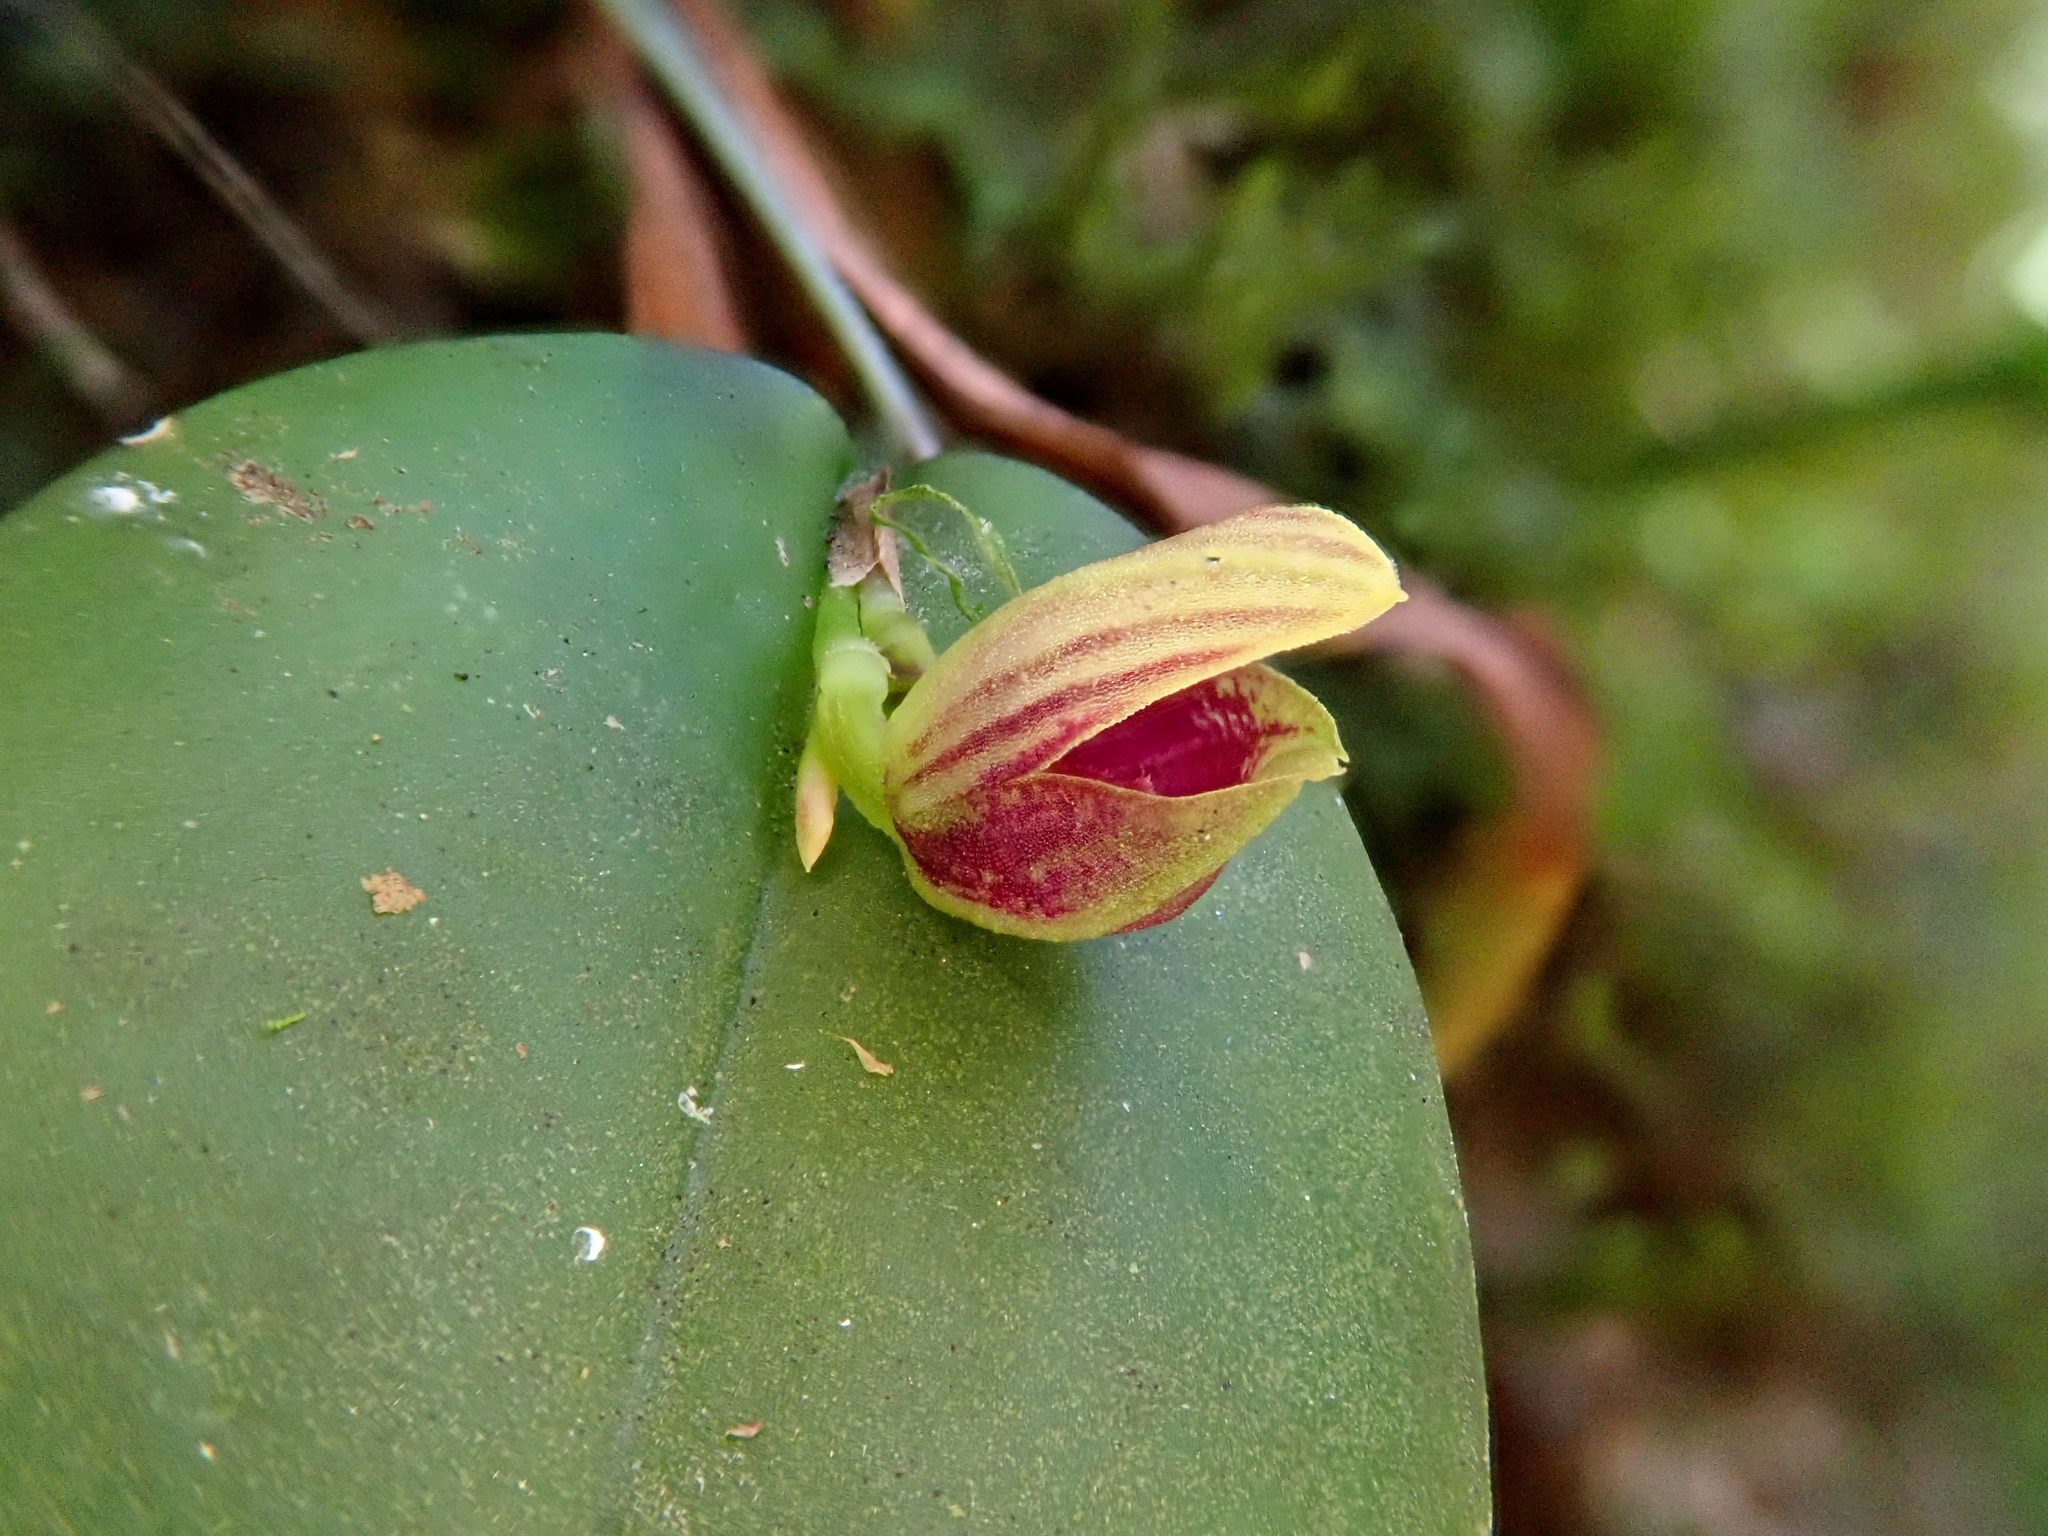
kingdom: Plantae
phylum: Tracheophyta
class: Liliopsida
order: Asparagales
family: Orchidaceae
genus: Acianthera
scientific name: Acianthera glanduligera
